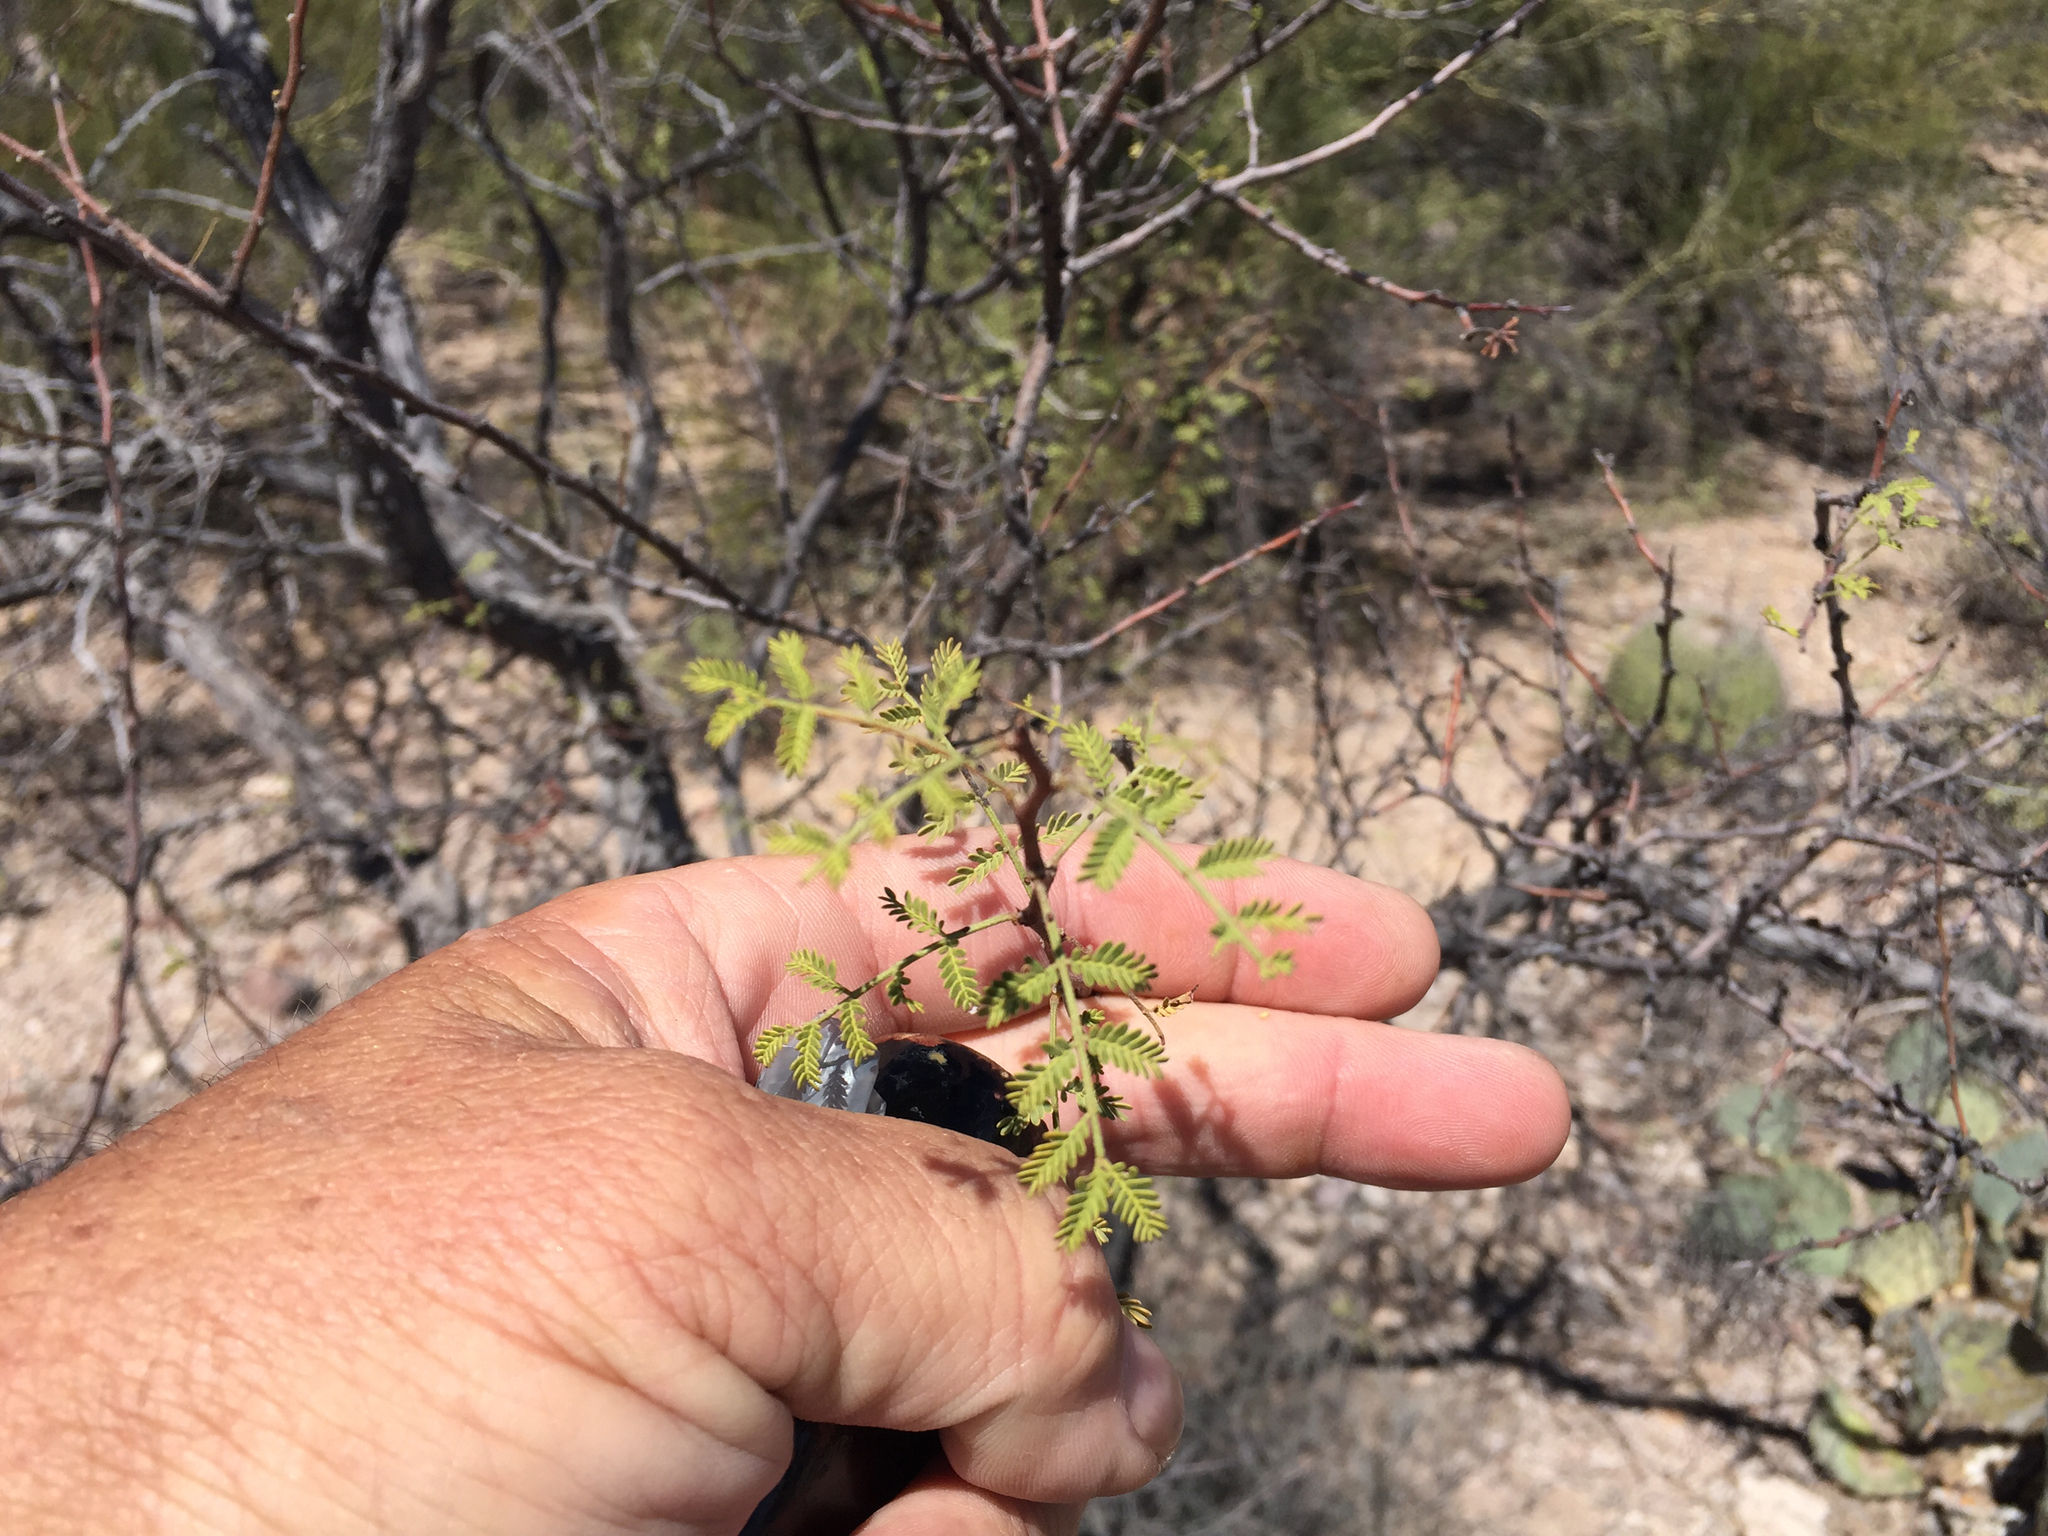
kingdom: Plantae
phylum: Tracheophyta
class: Magnoliopsida
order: Fabales
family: Fabaceae
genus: Vachellia
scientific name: Vachellia constricta
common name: Mescat acacia
